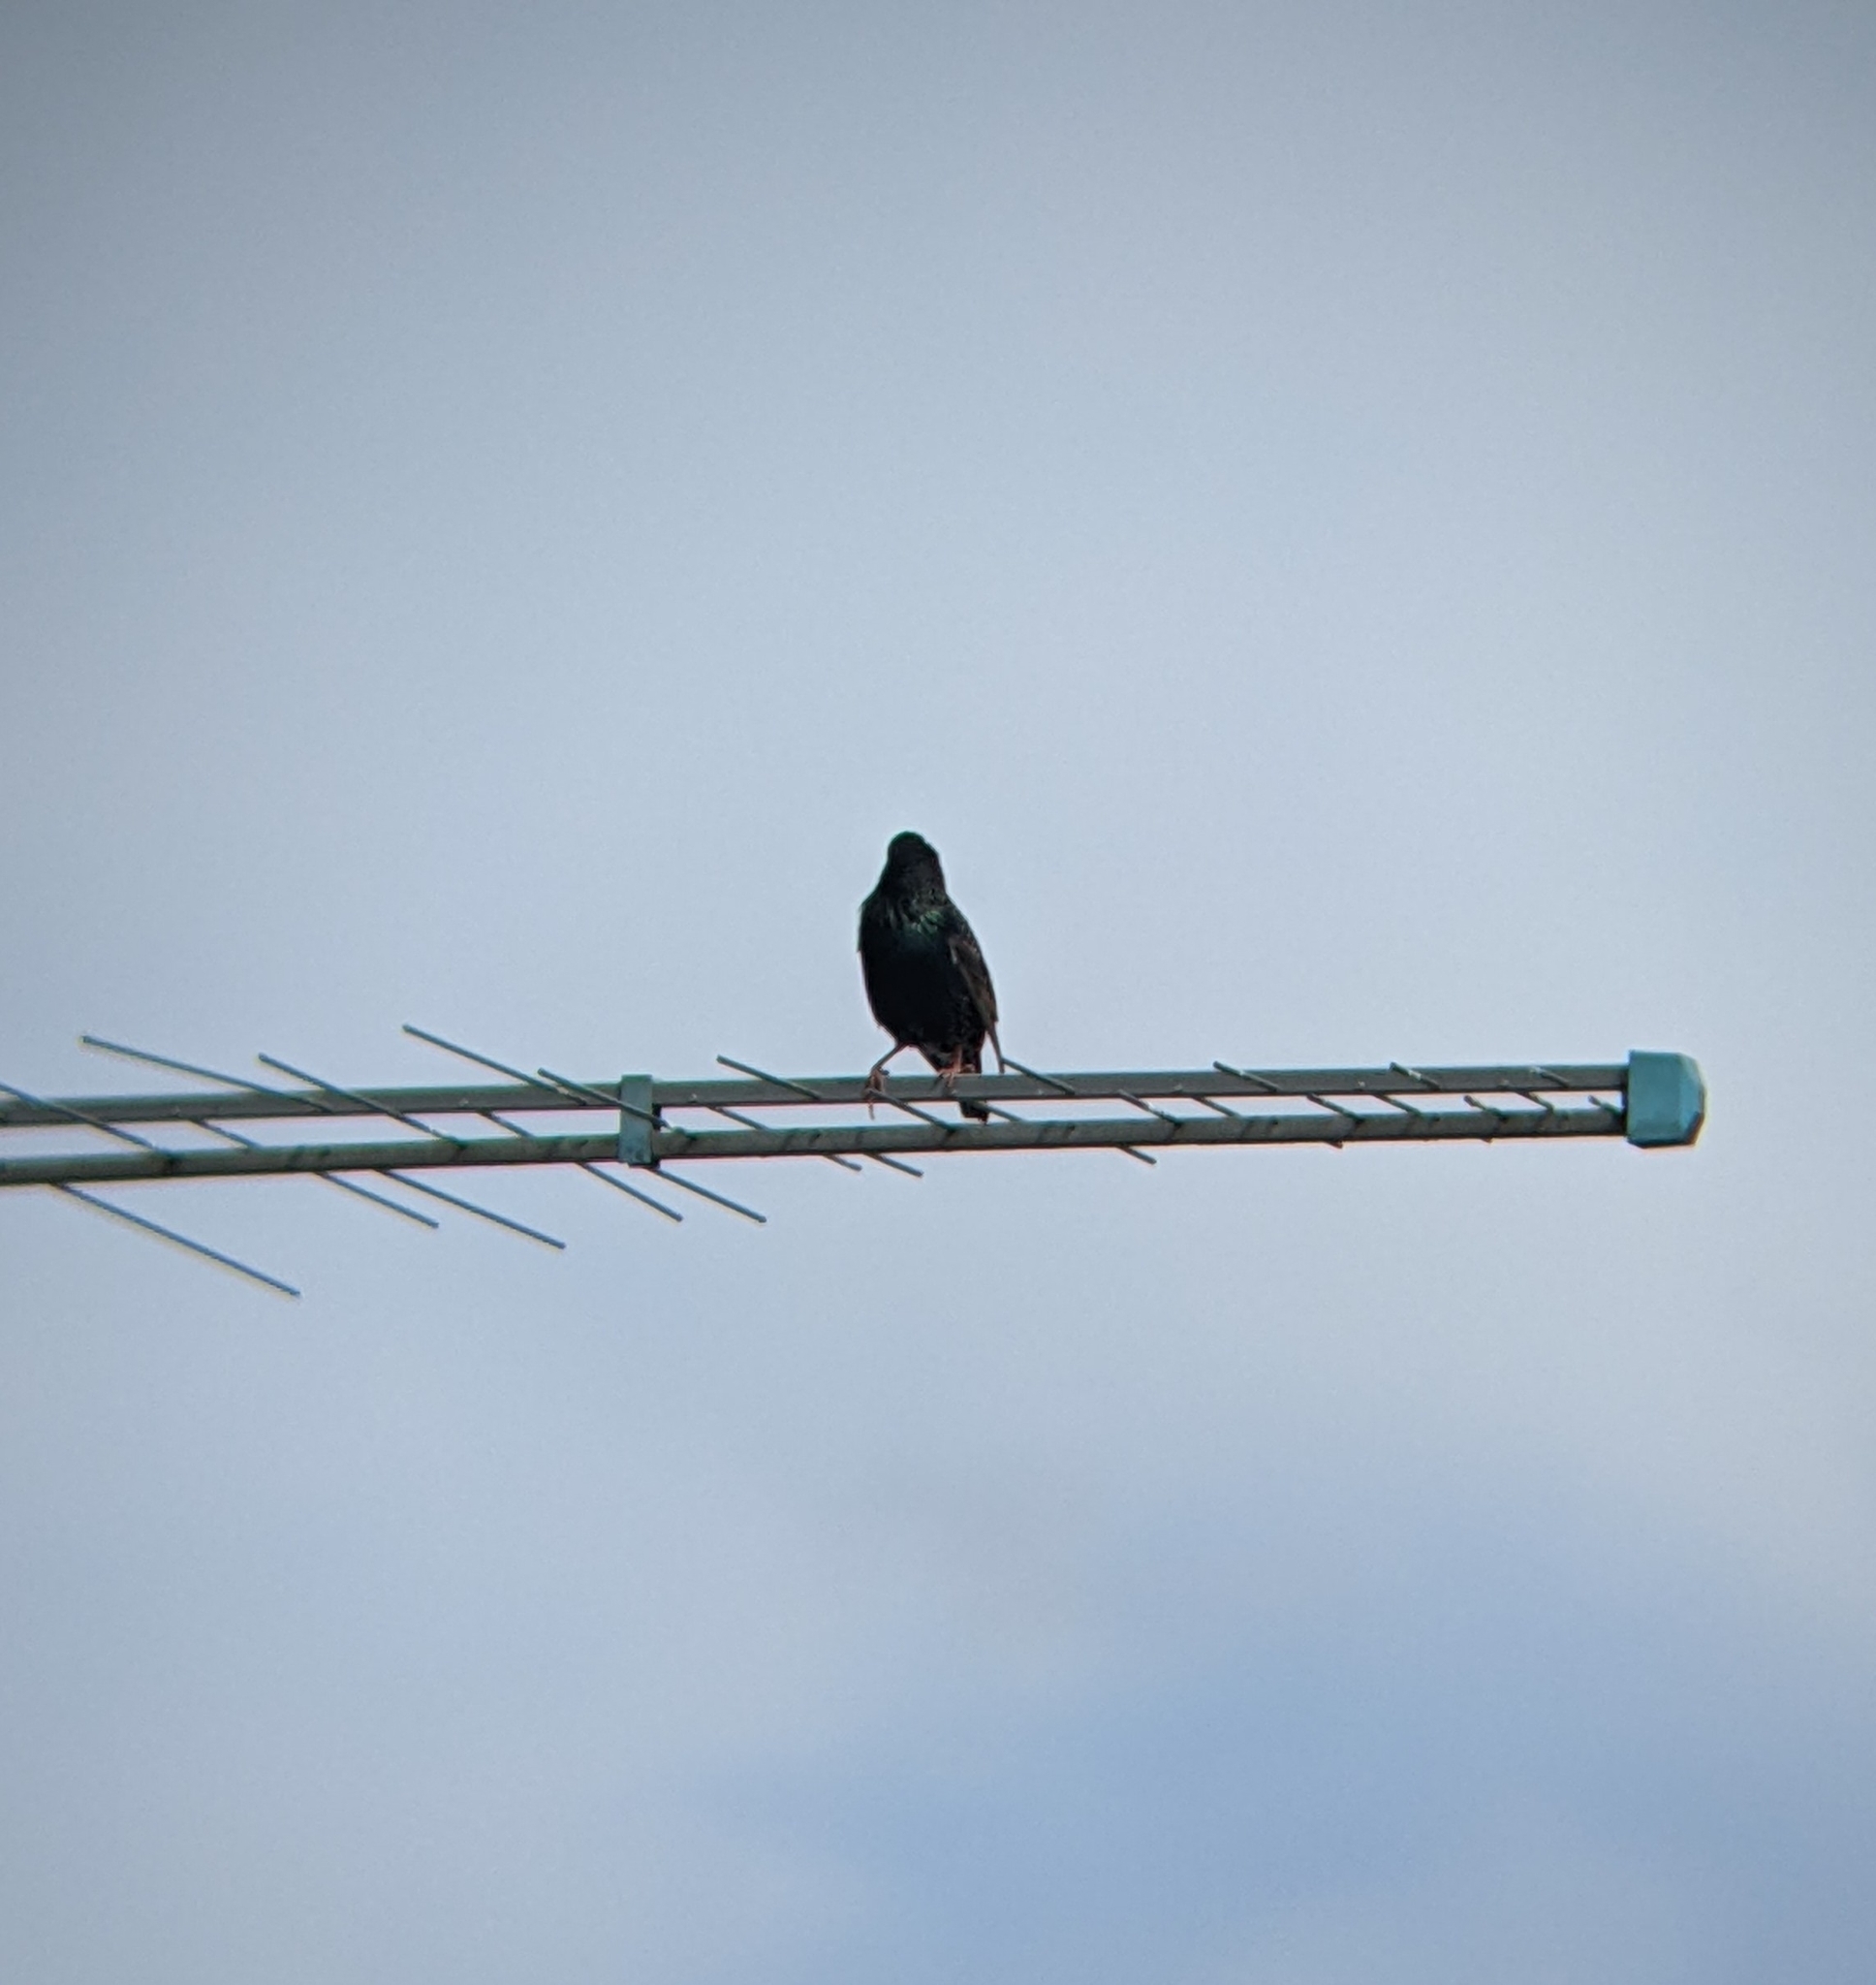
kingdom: Animalia
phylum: Chordata
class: Aves
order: Passeriformes
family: Sturnidae
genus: Sturnus
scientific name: Sturnus vulgaris
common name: Common starling
